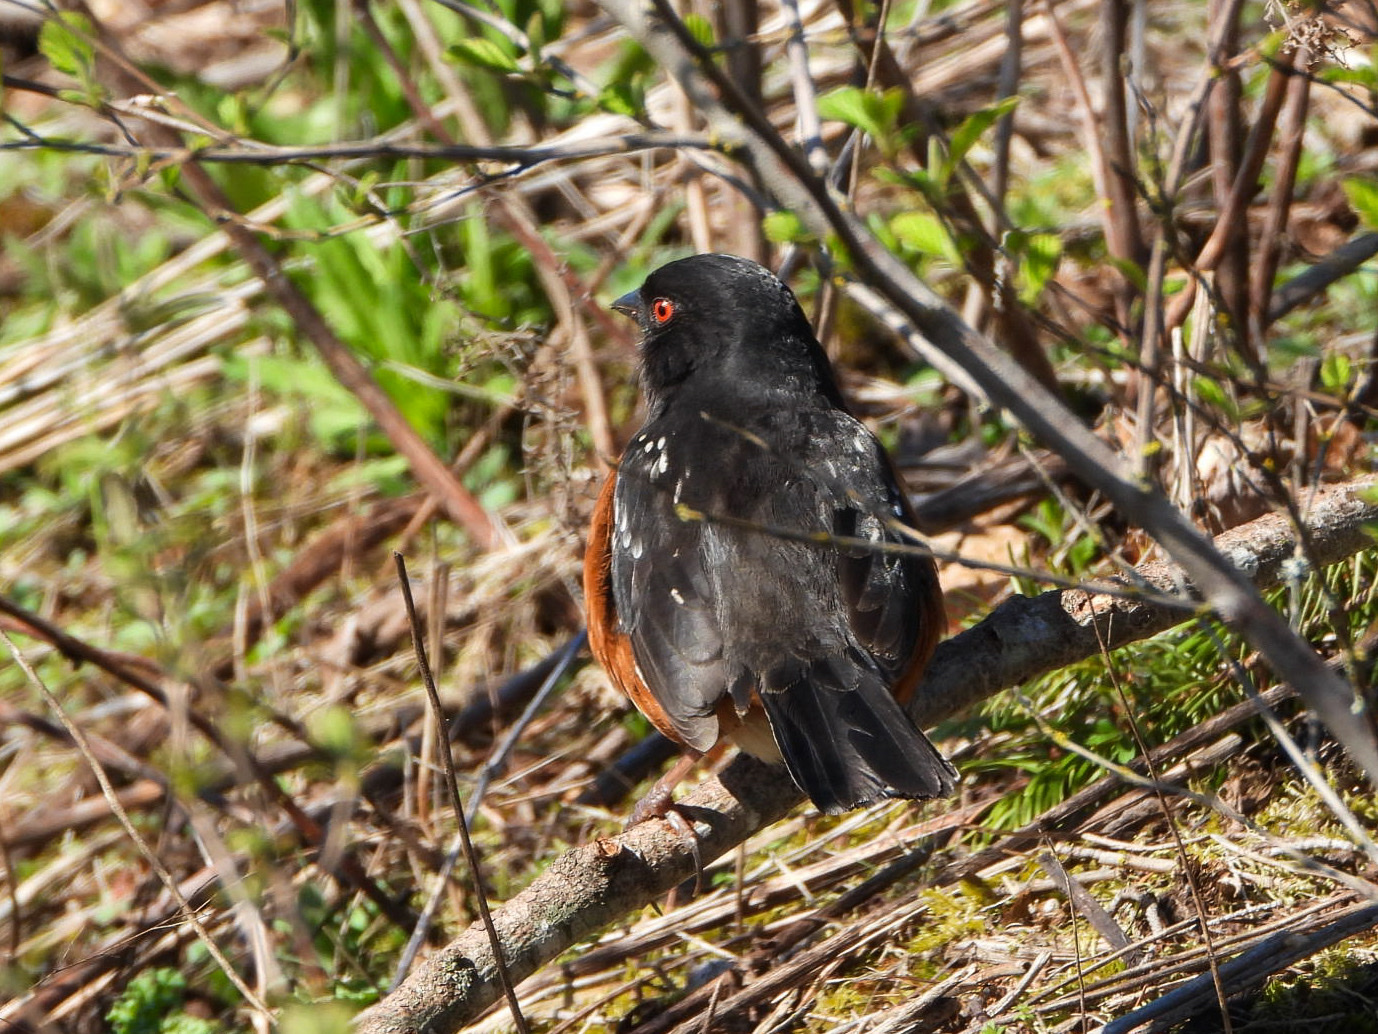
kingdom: Animalia
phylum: Chordata
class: Aves
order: Passeriformes
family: Passerellidae
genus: Pipilo
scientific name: Pipilo maculatus
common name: Spotted towhee
